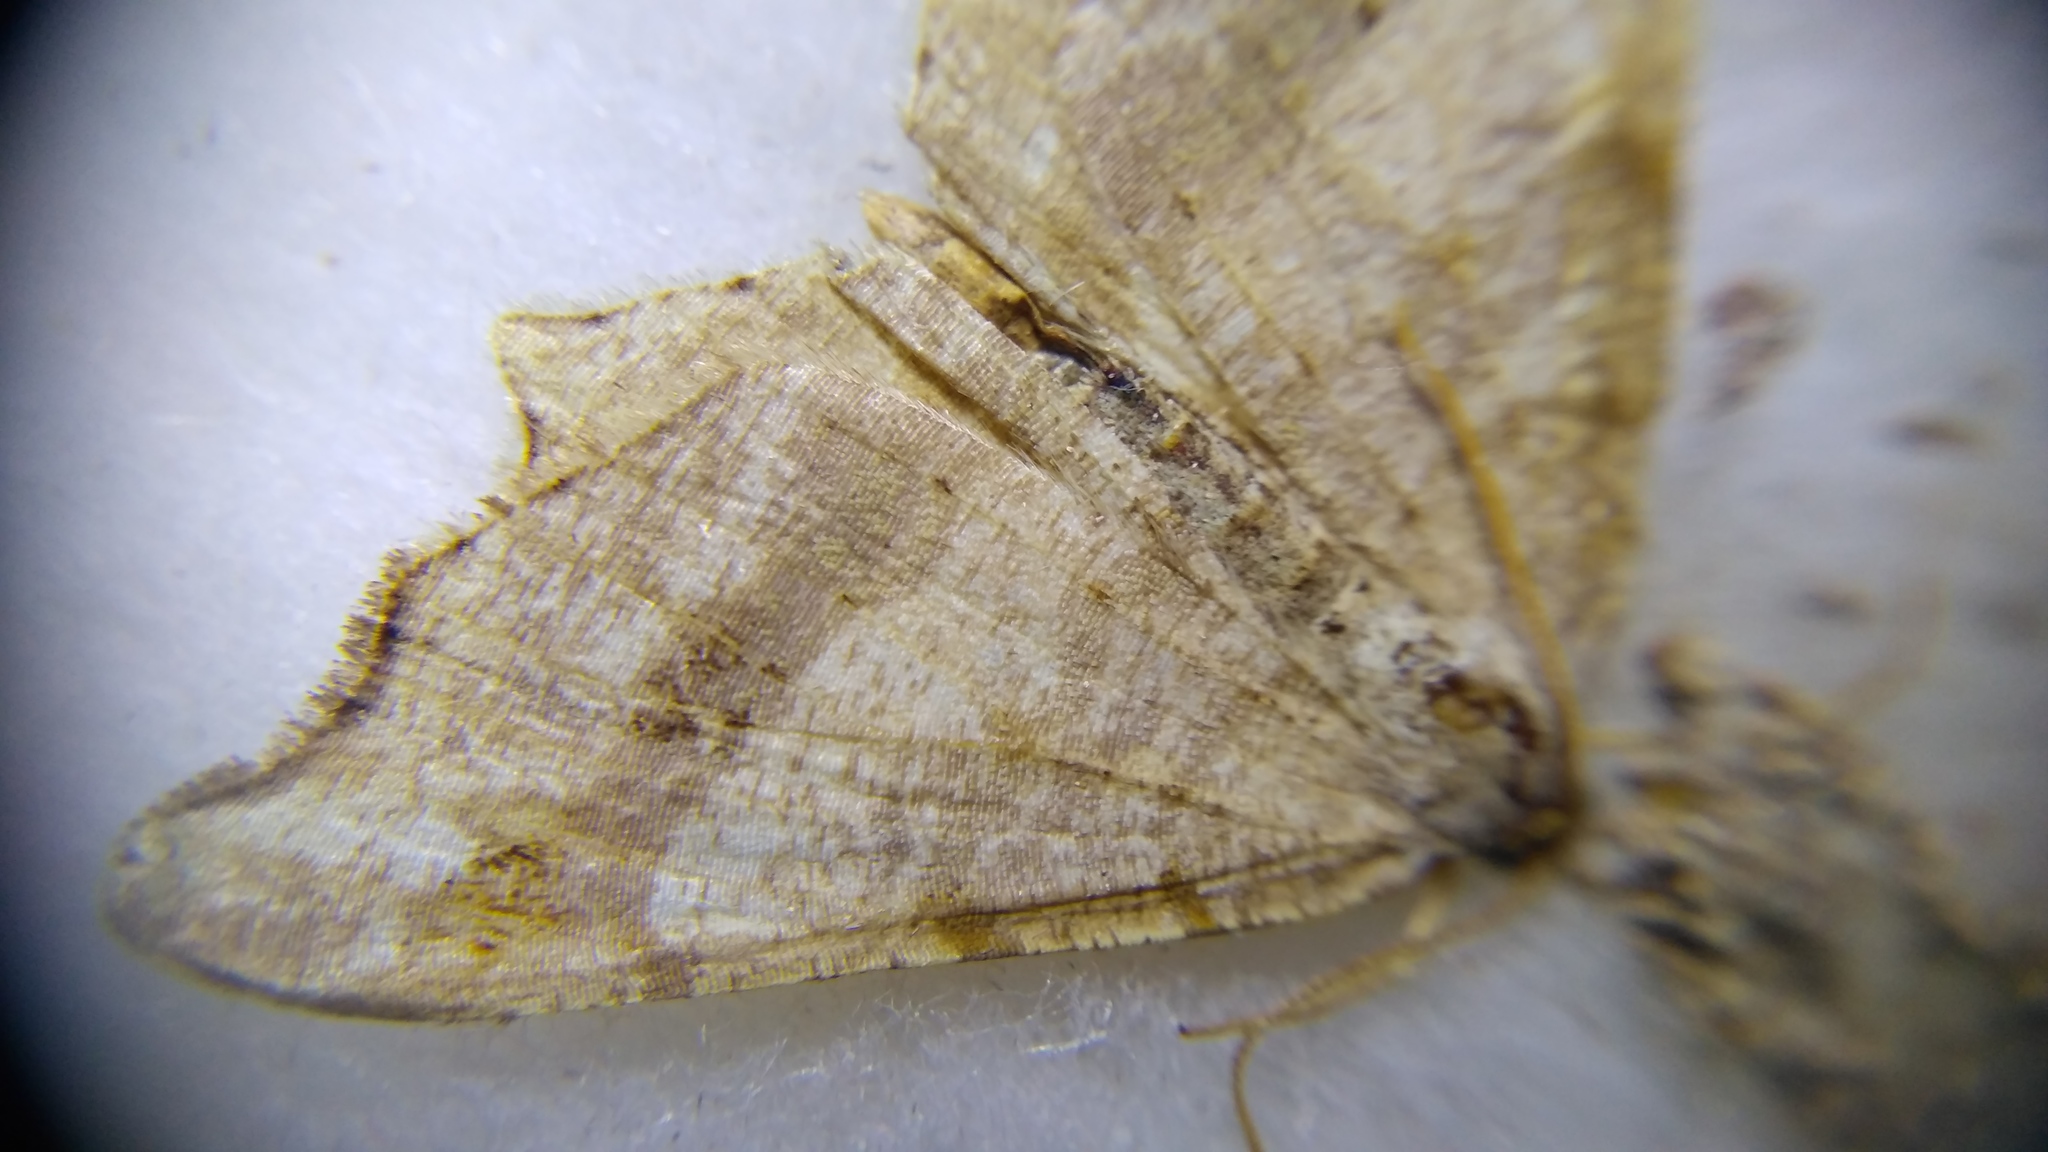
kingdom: Animalia
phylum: Arthropoda
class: Insecta
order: Lepidoptera
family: Geometridae
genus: Macaria
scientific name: Macaria alternata
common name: Sharp-angled peacock
